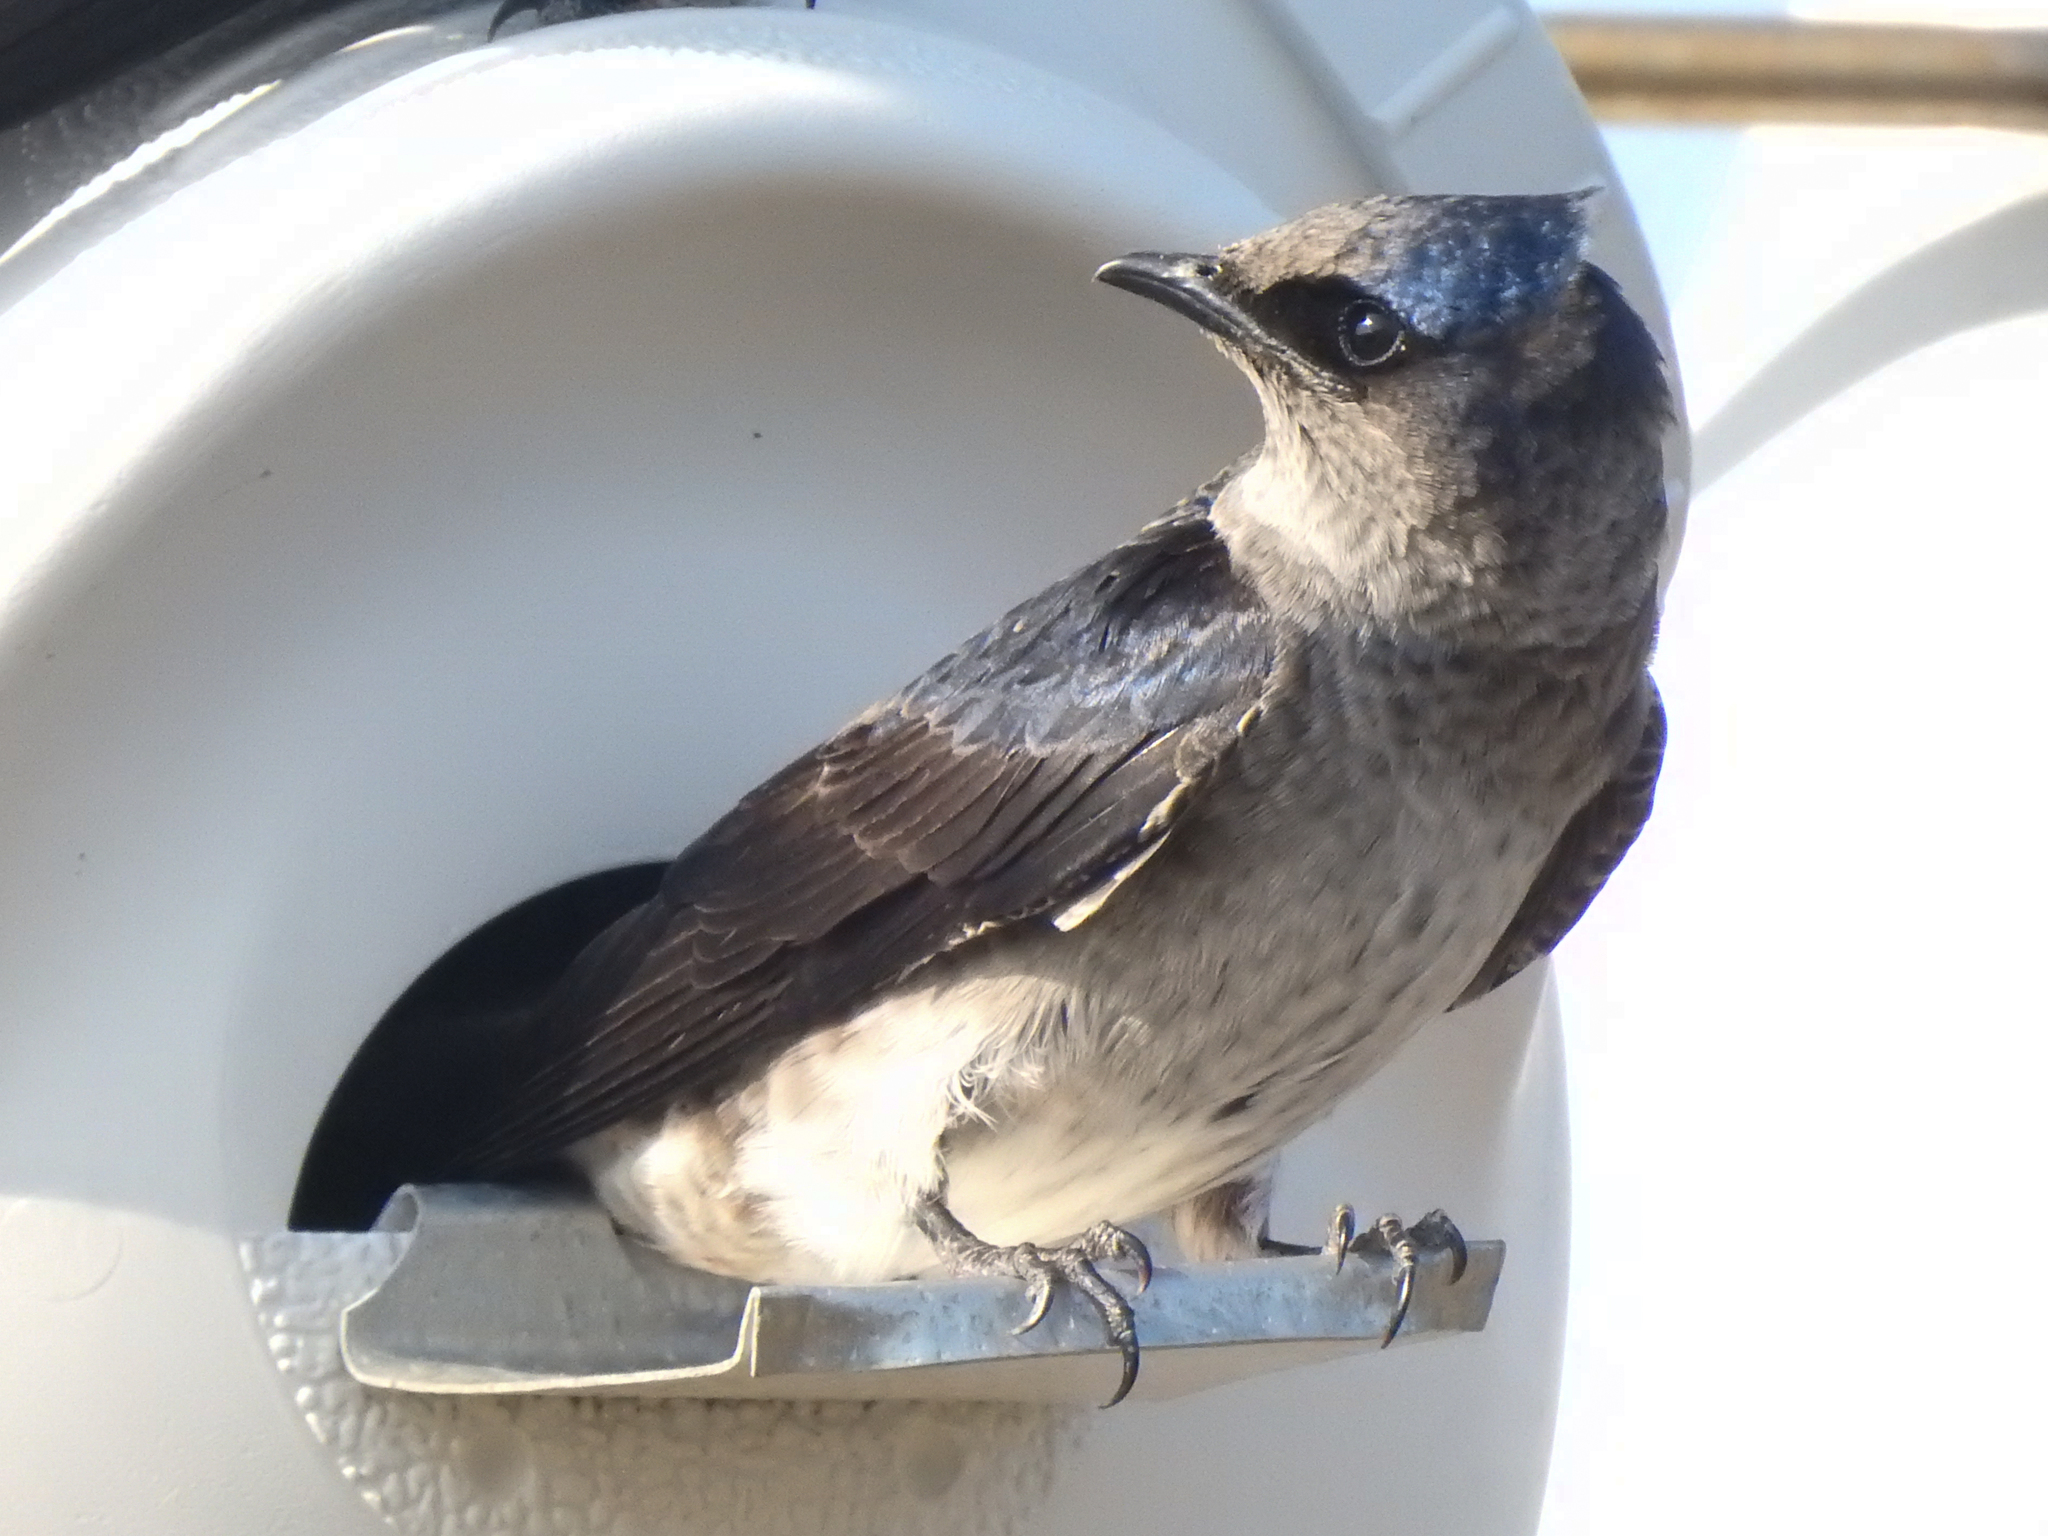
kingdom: Animalia
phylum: Chordata
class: Aves
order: Passeriformes
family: Hirundinidae
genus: Progne
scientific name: Progne subis
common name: Purple martin
